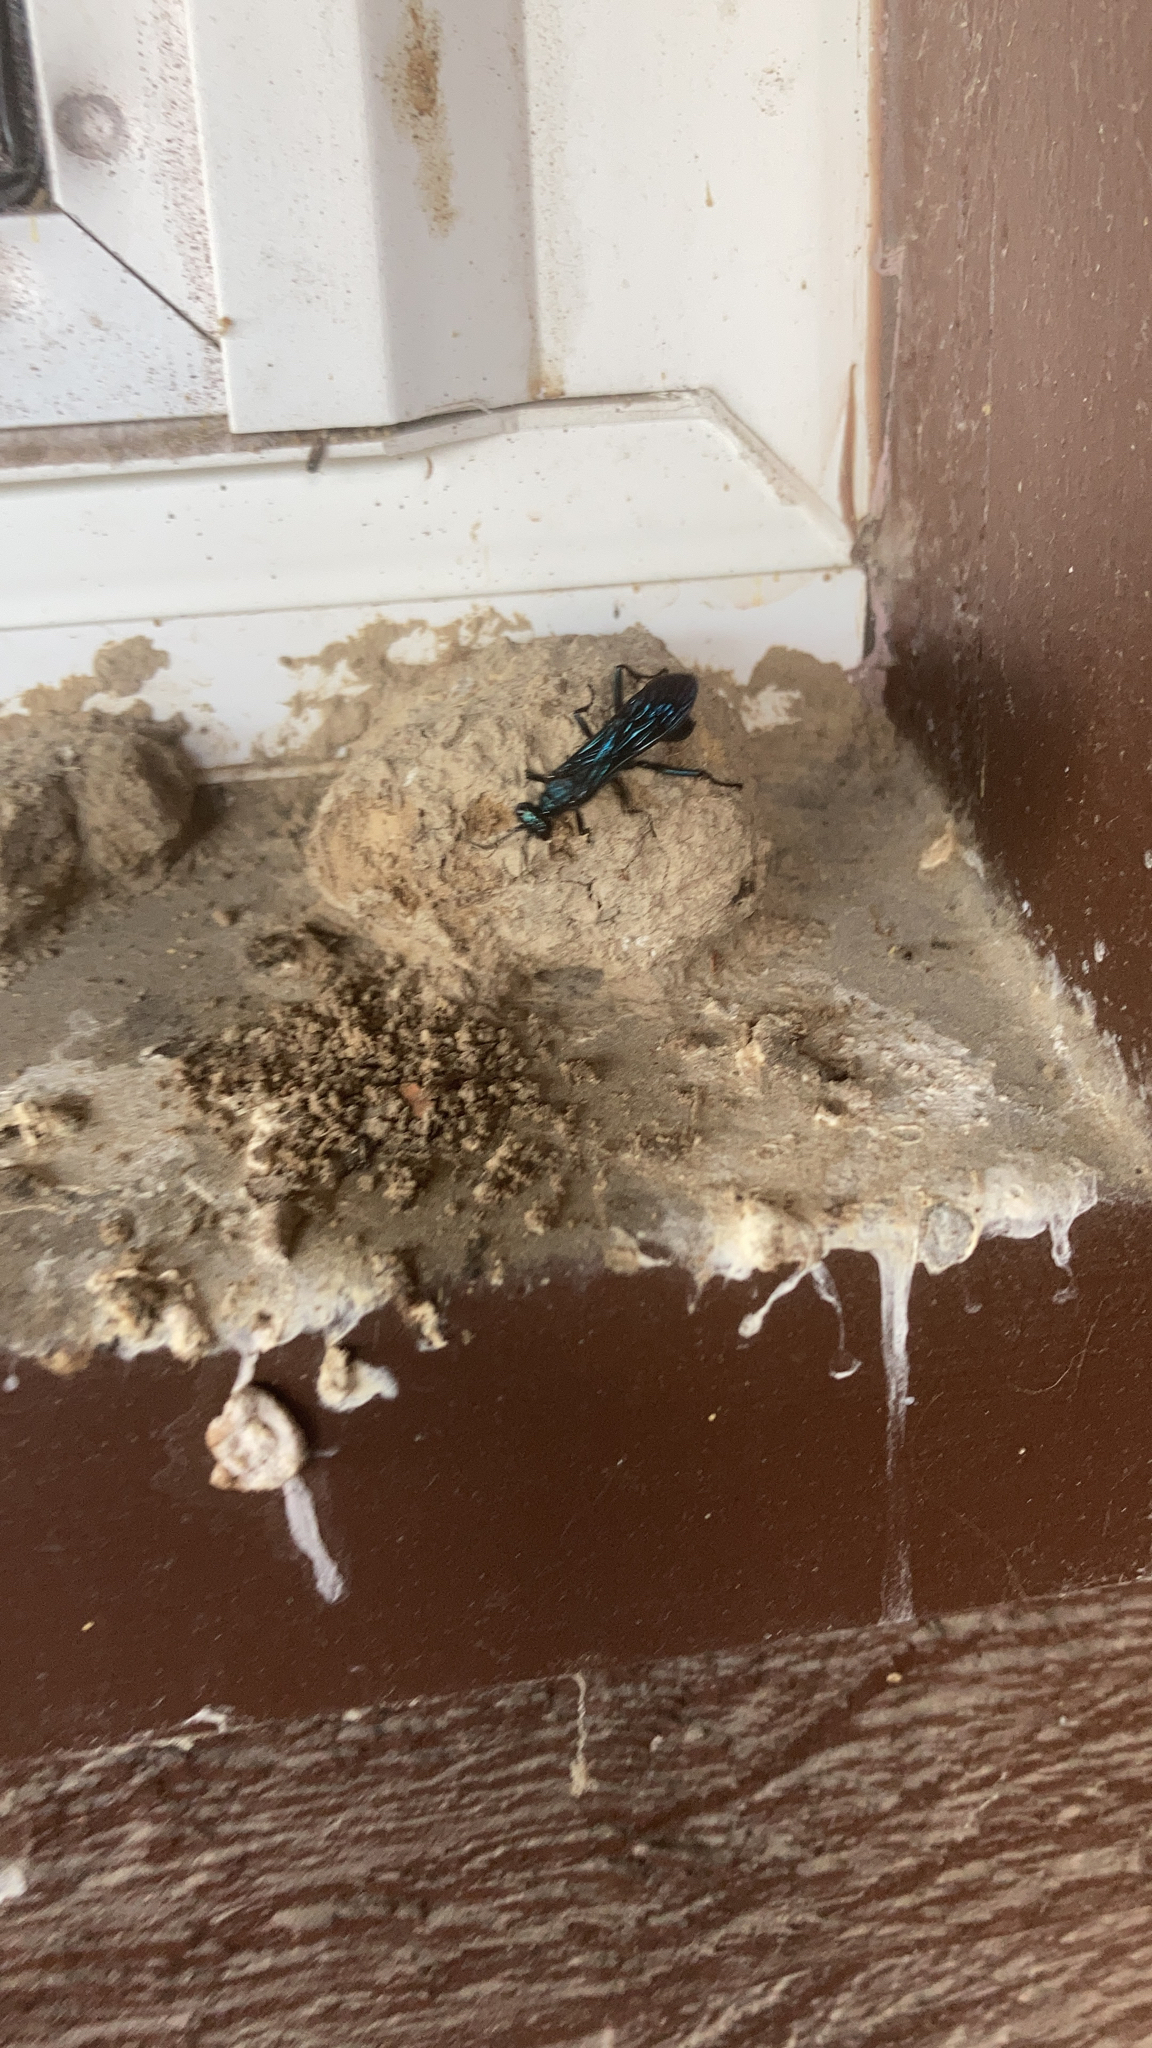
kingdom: Animalia
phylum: Arthropoda
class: Insecta
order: Hymenoptera
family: Sphecidae
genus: Chalybion
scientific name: Chalybion californicum
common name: Mud dauber
